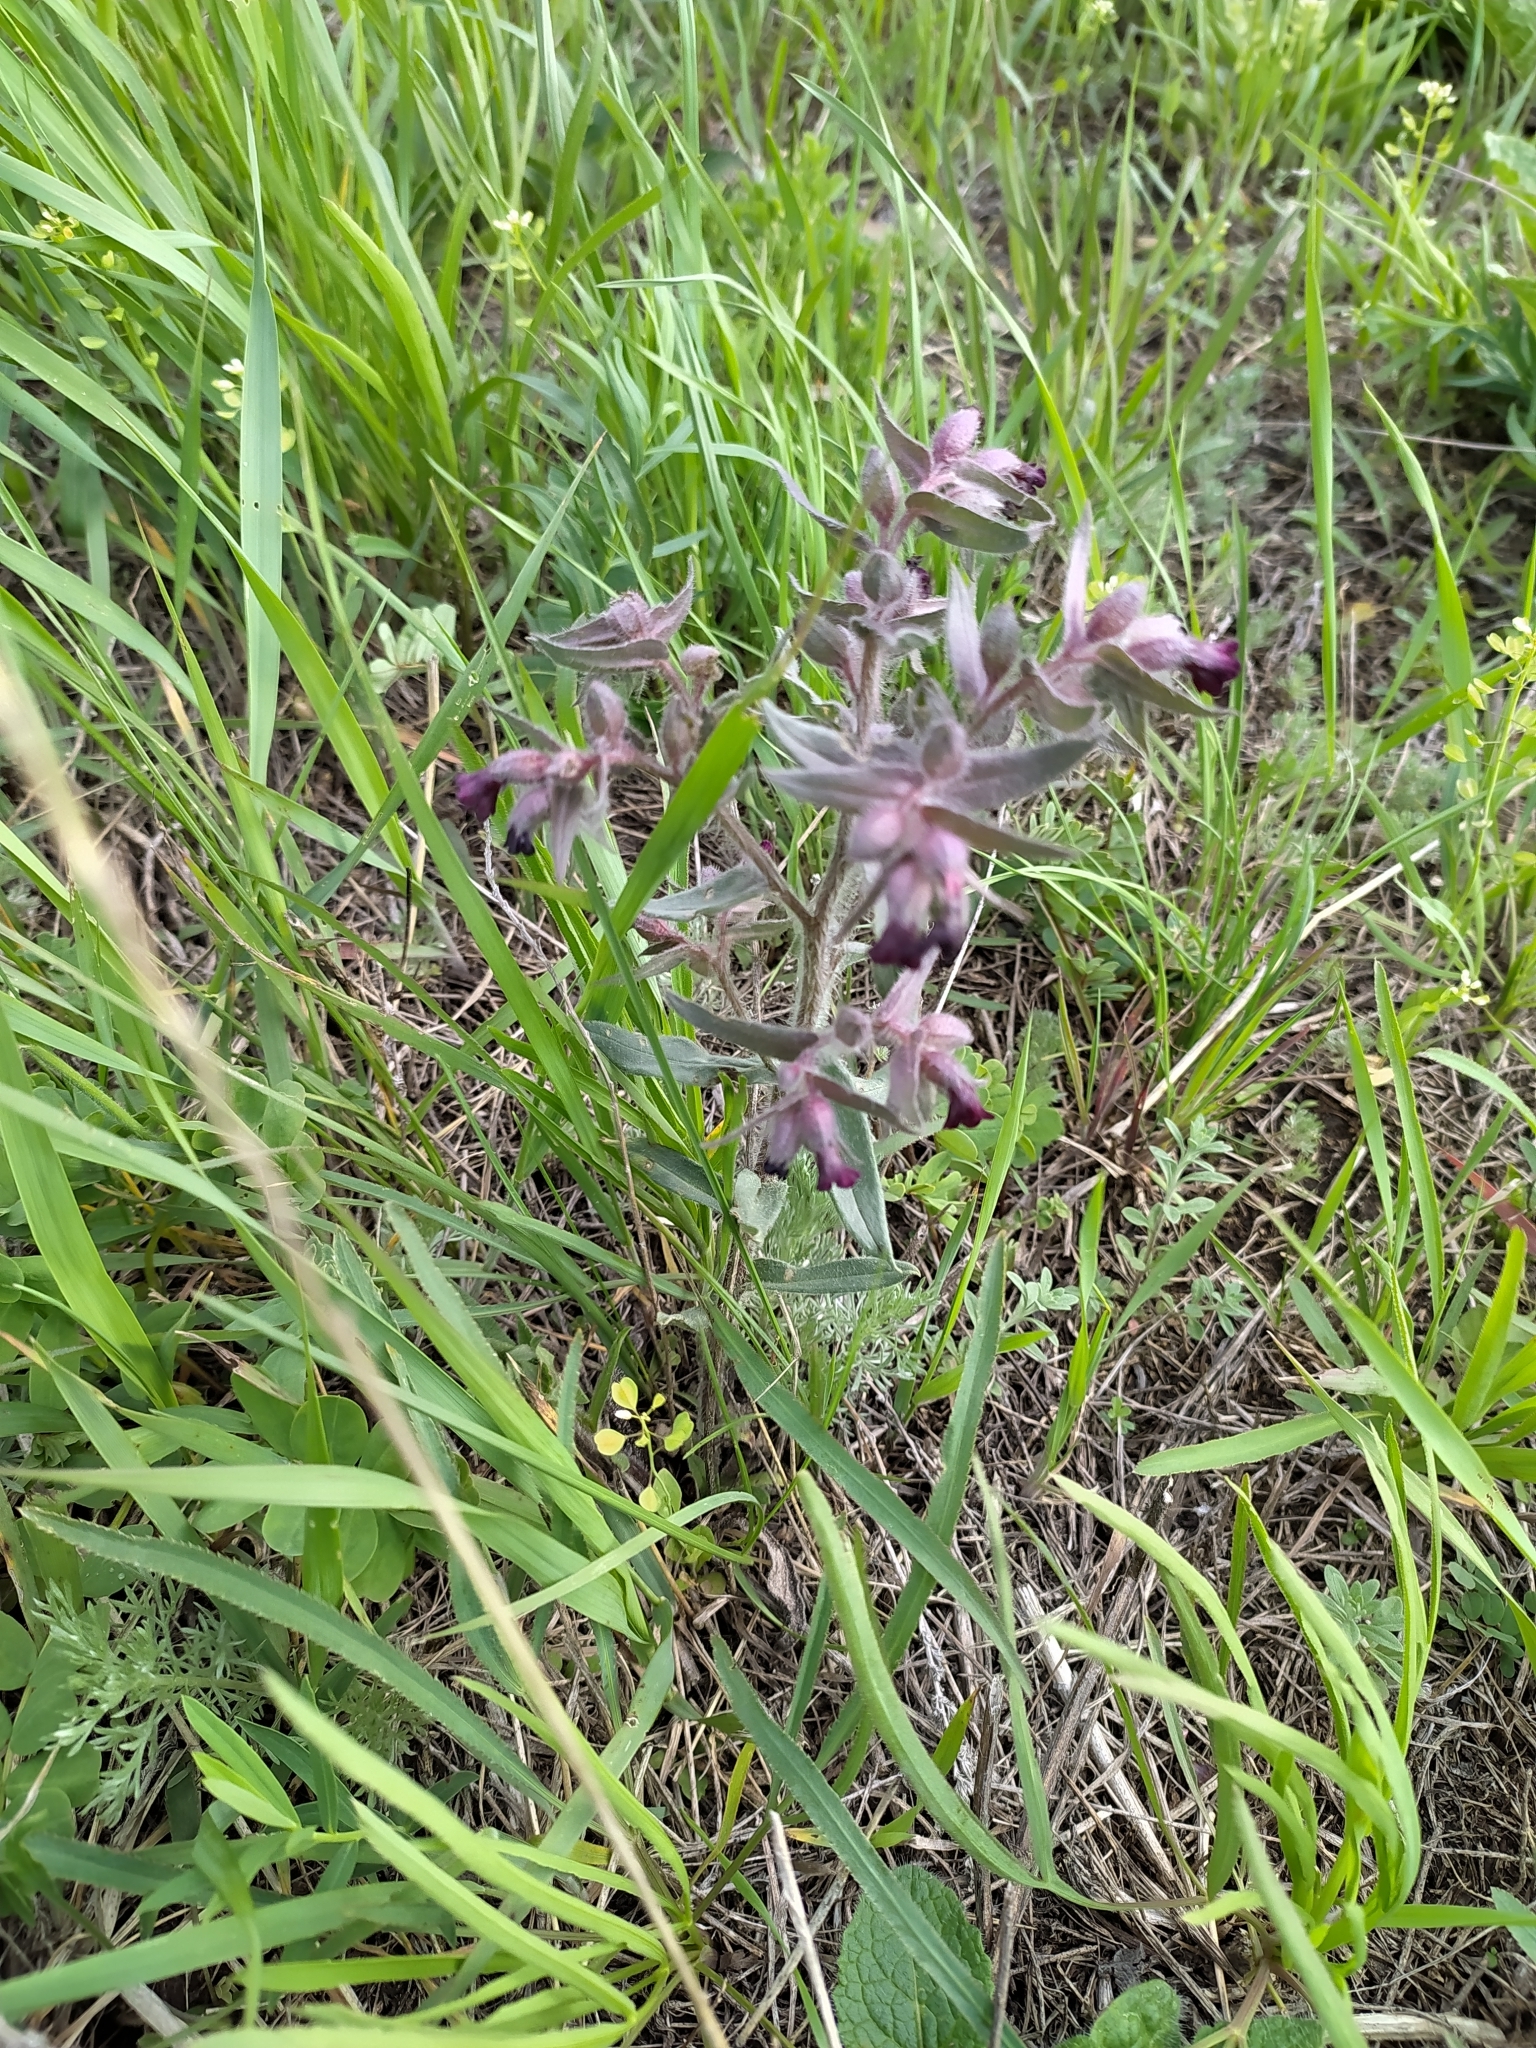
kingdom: Plantae
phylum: Tracheophyta
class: Magnoliopsida
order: Boraginales
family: Boraginaceae
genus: Nonea
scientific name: Nonea pulla
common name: Brown nonea
